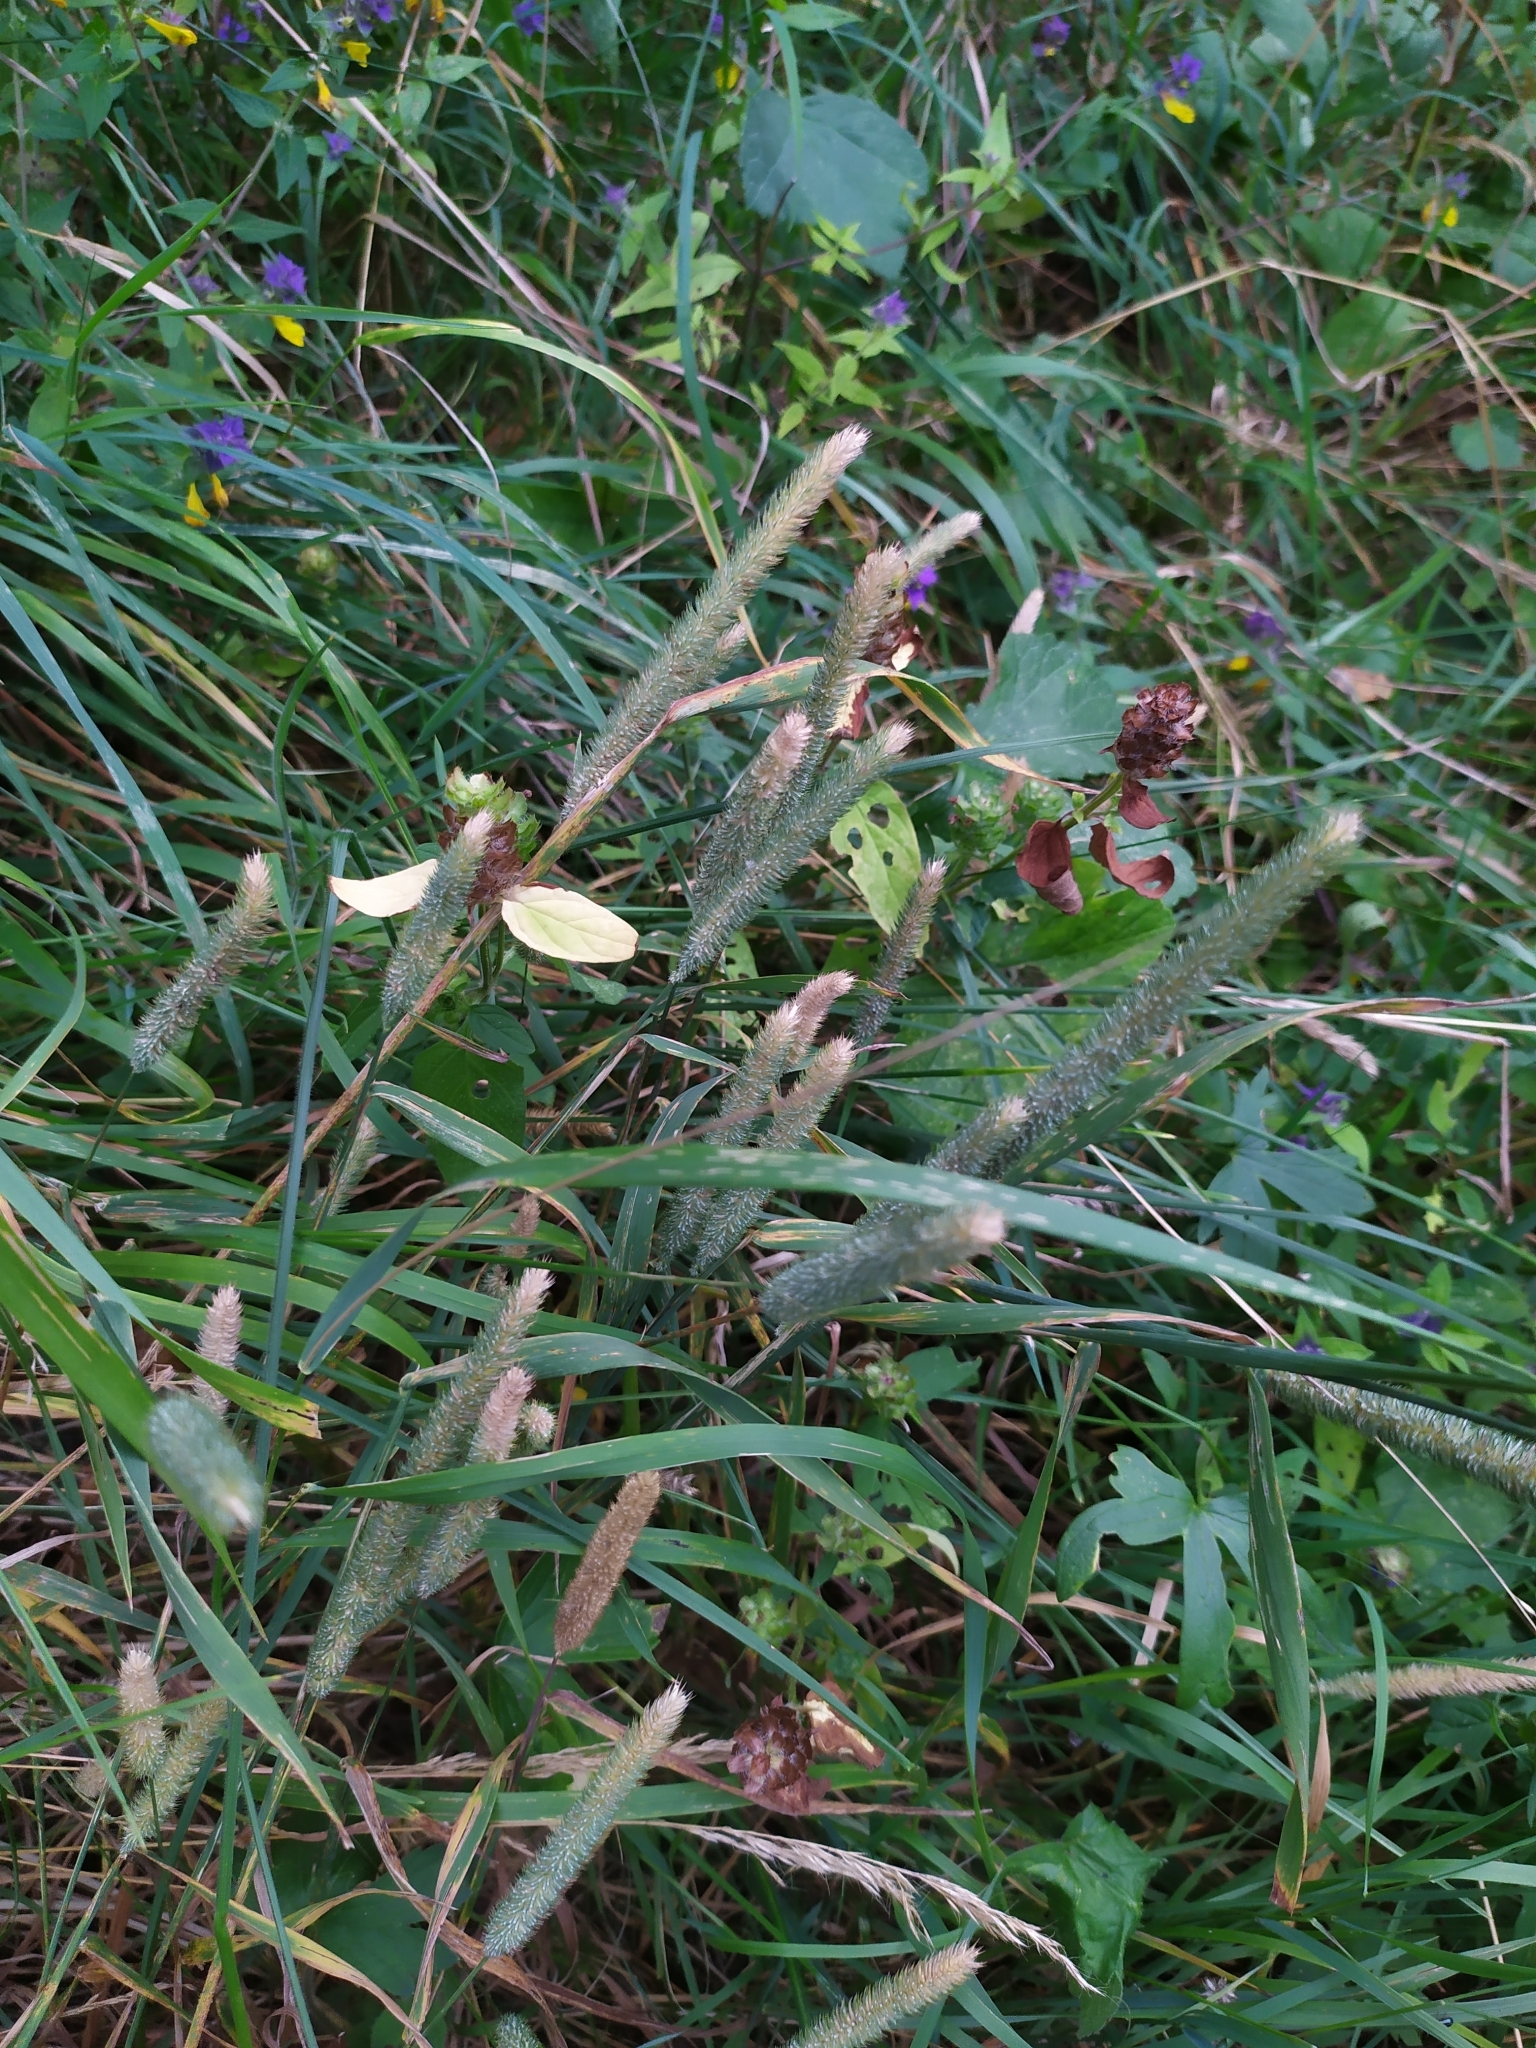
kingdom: Plantae
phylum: Tracheophyta
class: Liliopsida
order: Poales
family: Poaceae
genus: Phleum
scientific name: Phleum pratense
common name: Timothy grass
